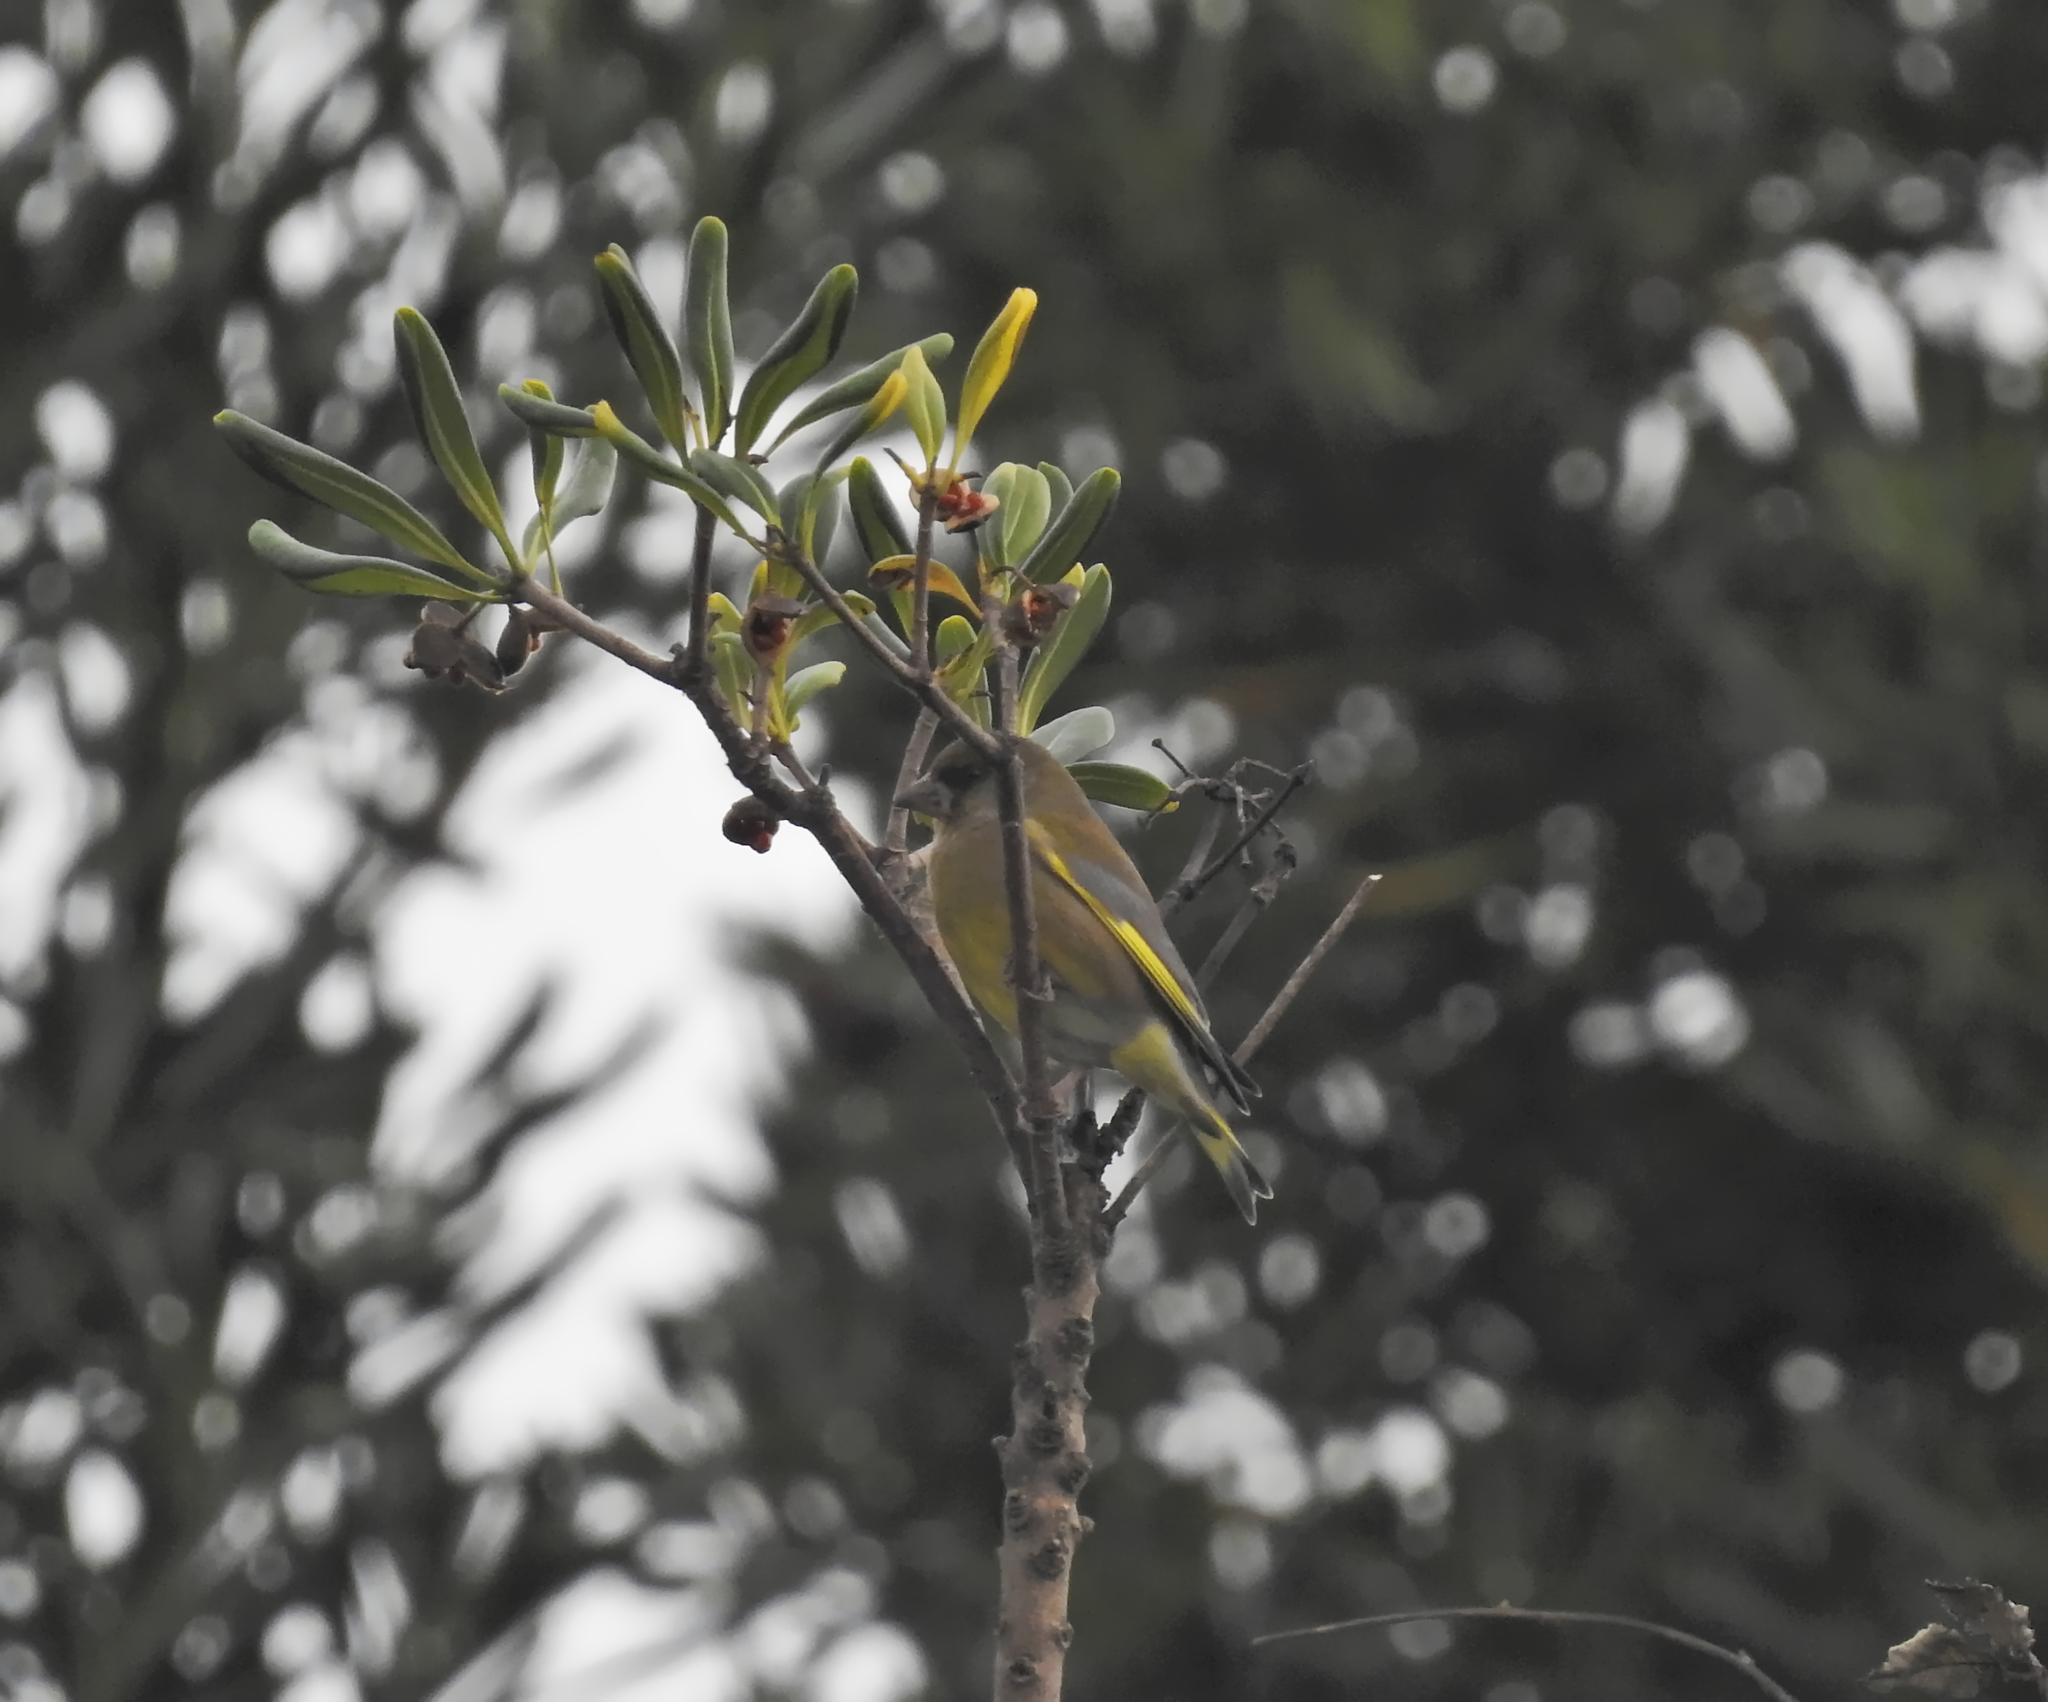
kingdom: Plantae
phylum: Tracheophyta
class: Liliopsida
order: Poales
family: Poaceae
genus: Chloris
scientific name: Chloris chloris
